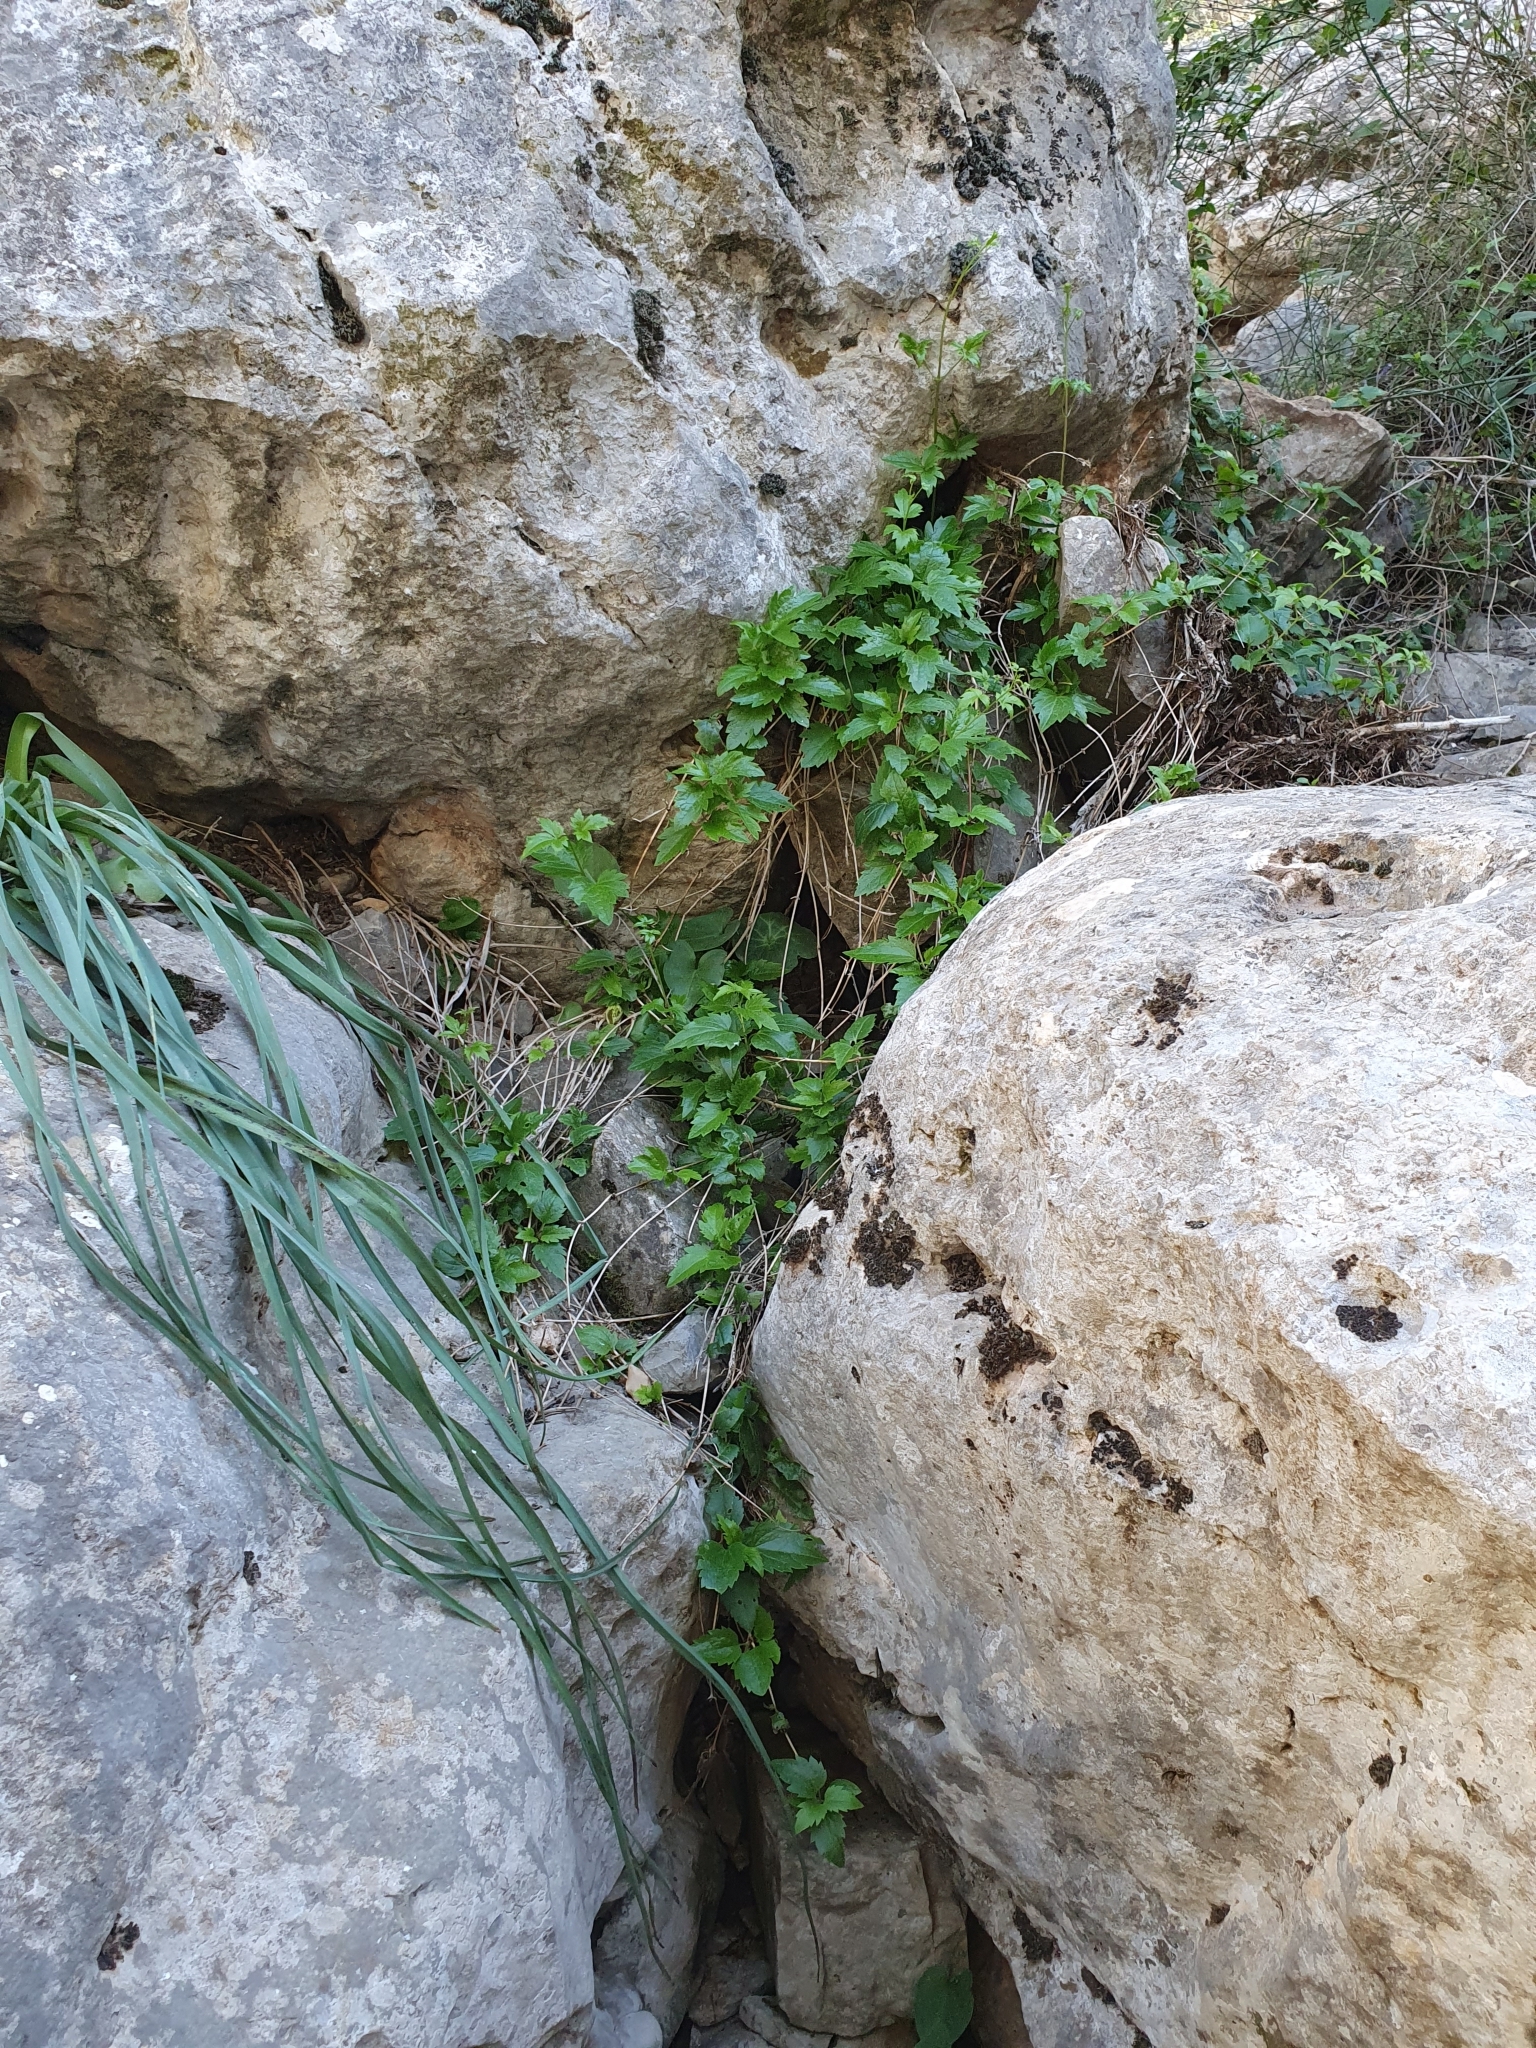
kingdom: Plantae
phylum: Tracheophyta
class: Magnoliopsida
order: Ranunculales
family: Ranunculaceae
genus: Clematis
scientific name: Clematis cirrhosa
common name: Early virgin's-bower
